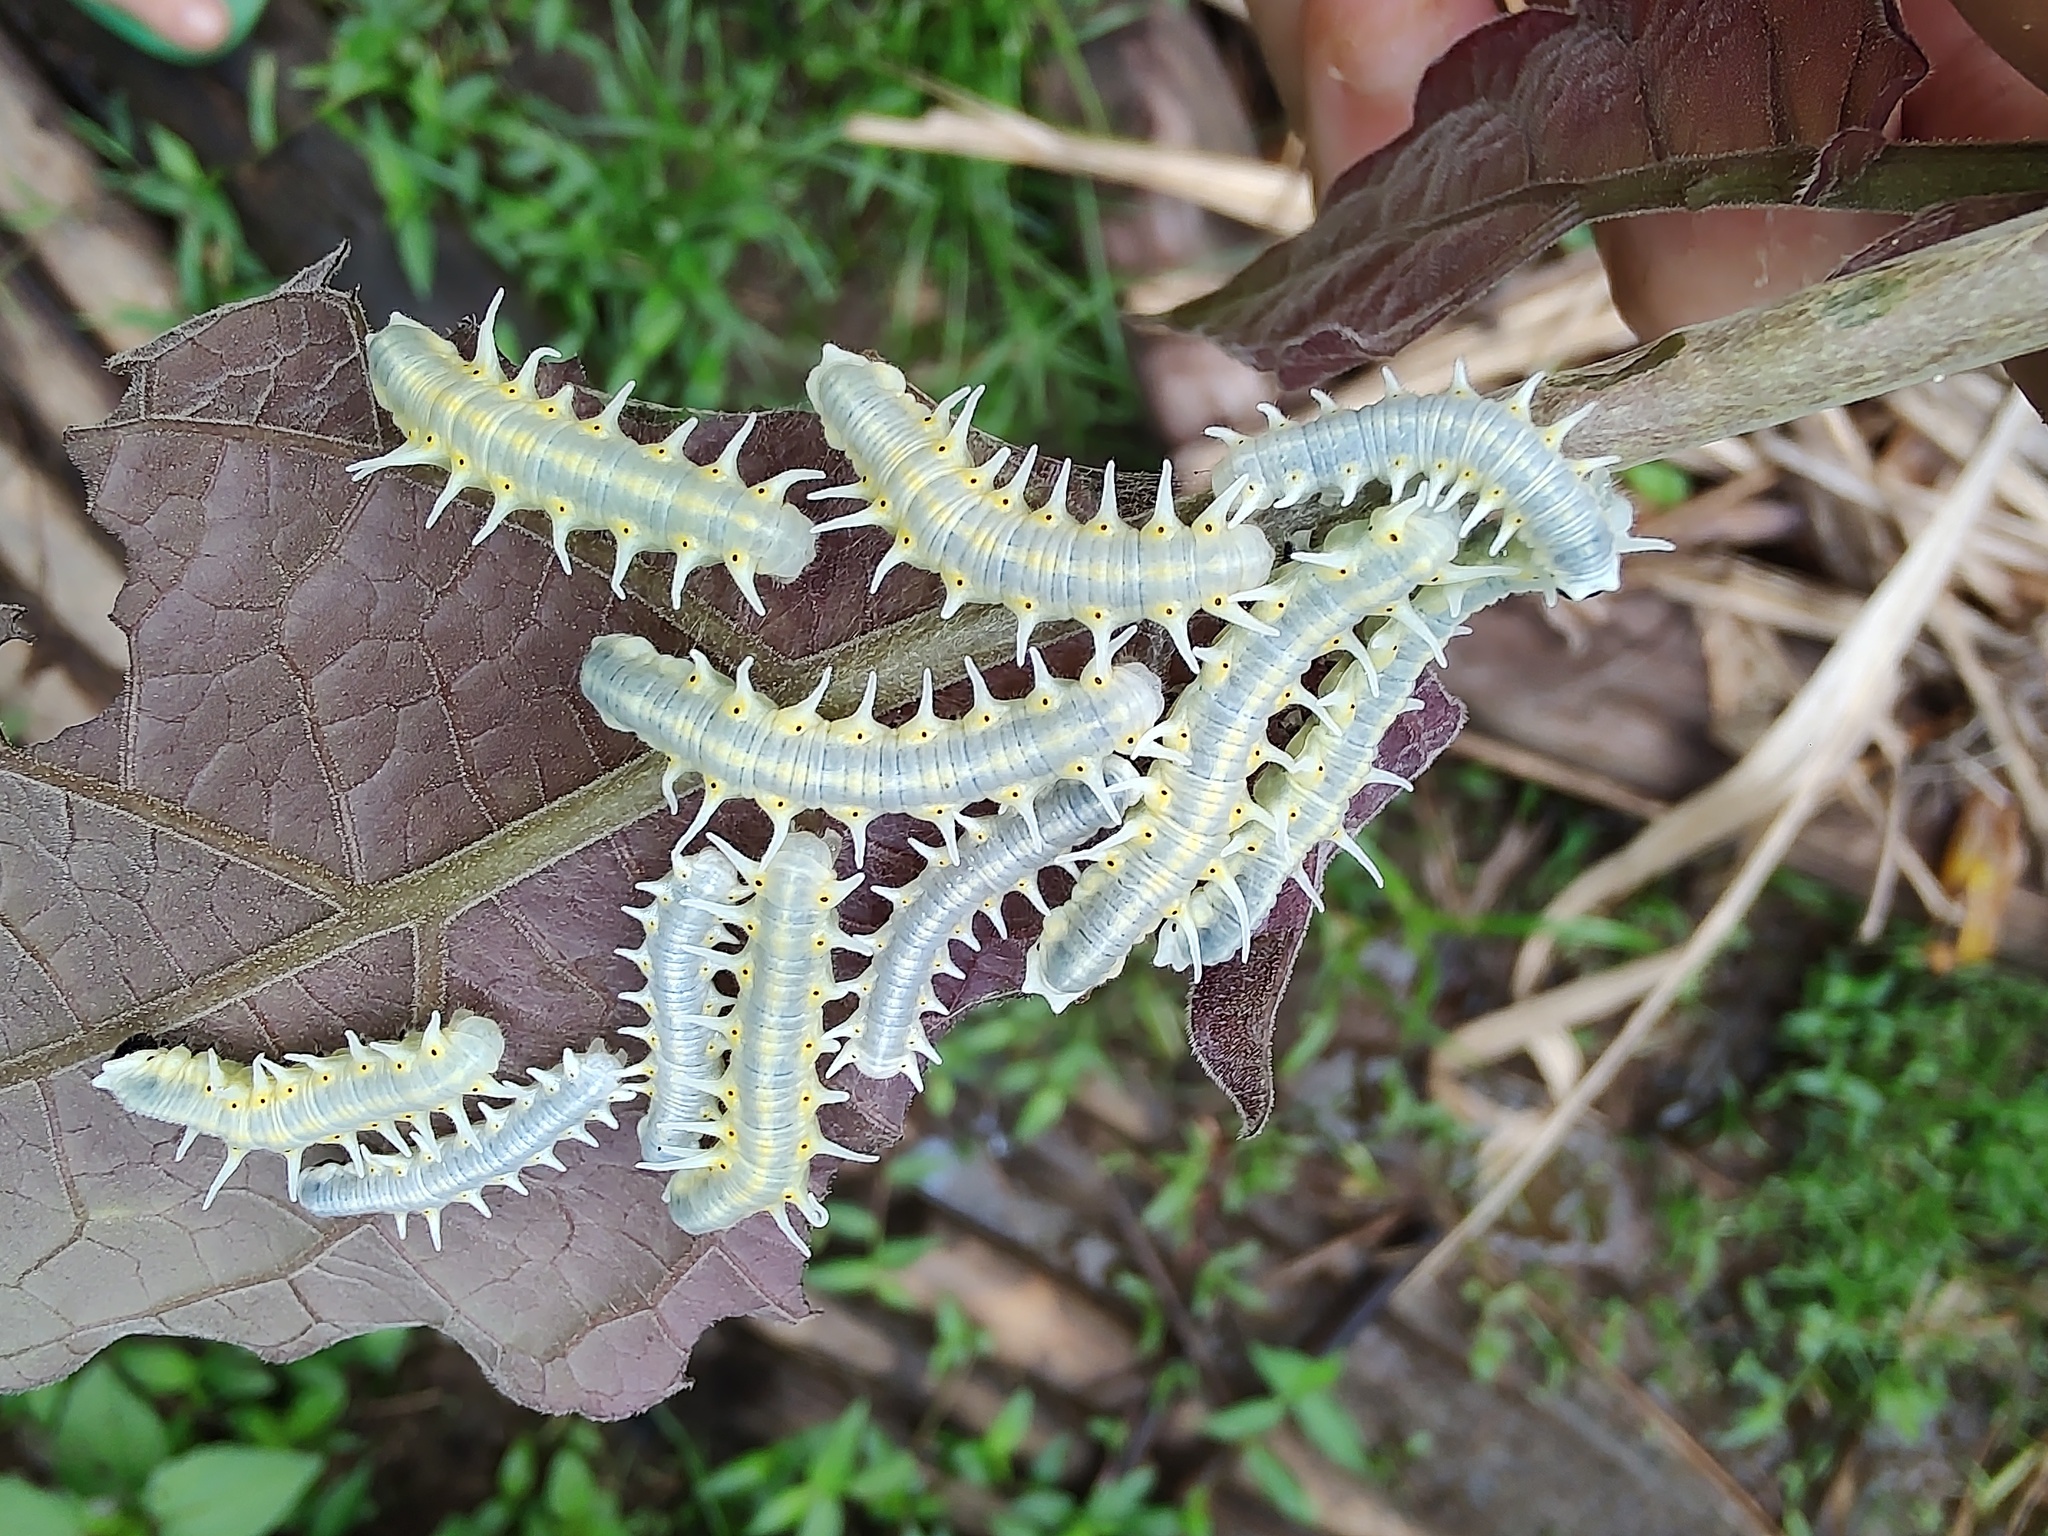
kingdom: Animalia
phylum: Arthropoda
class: Insecta
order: Lepidoptera
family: Nymphalidae
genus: Mechanitis
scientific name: Mechanitis lysimnia
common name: Lysimnia tigerwing
